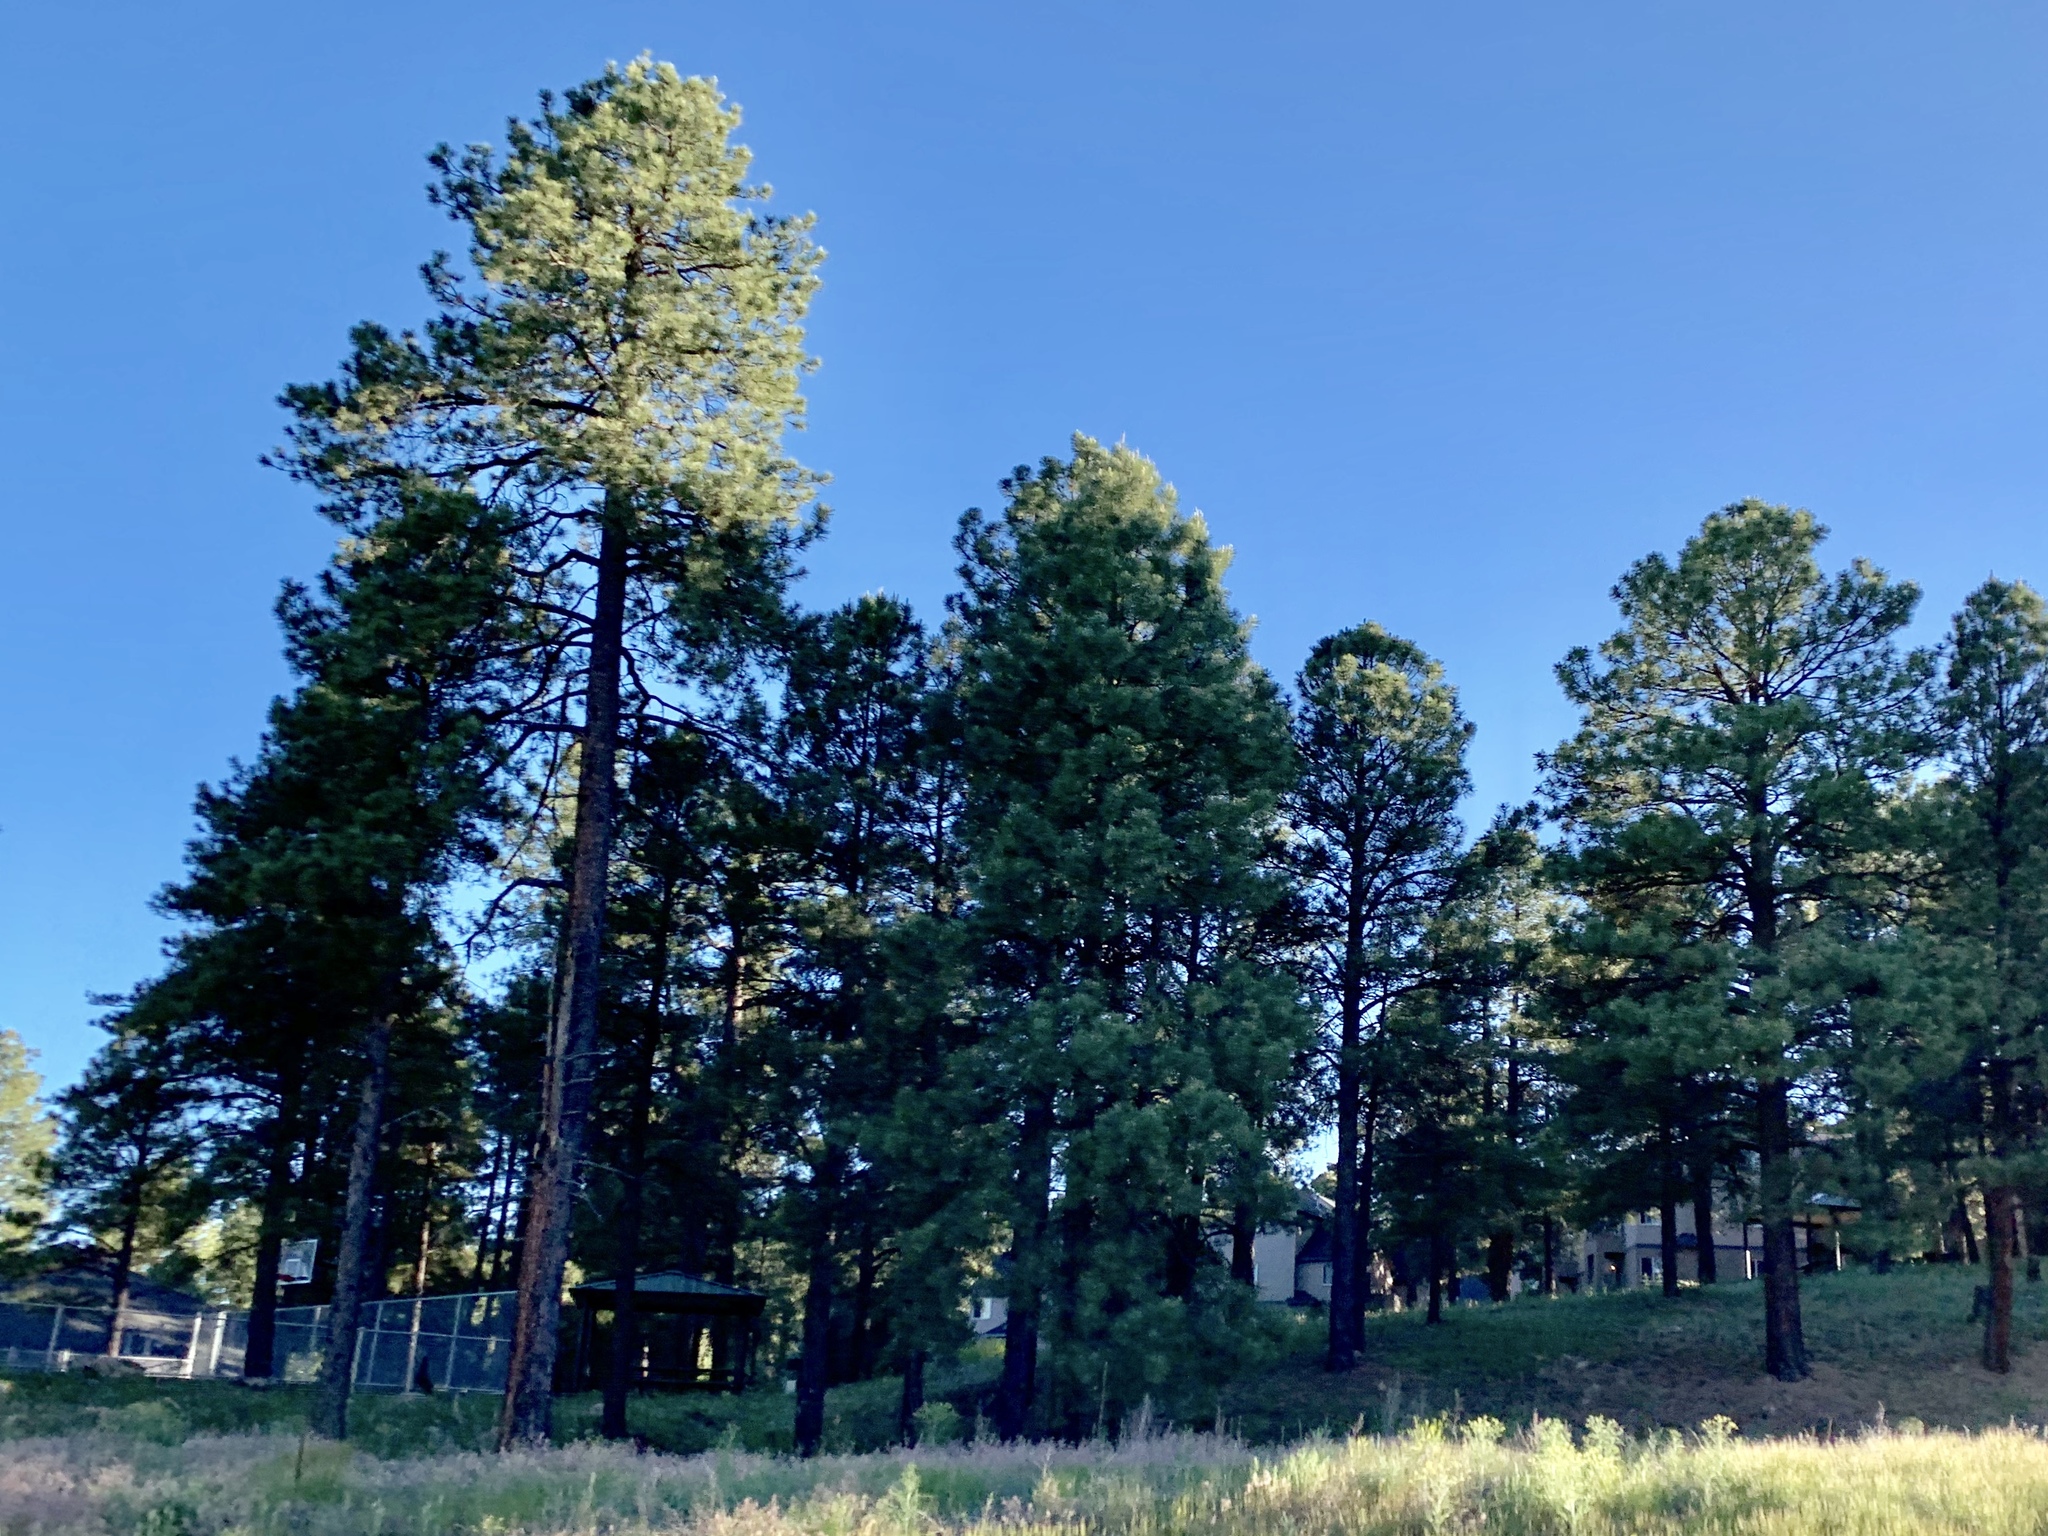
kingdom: Plantae
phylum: Tracheophyta
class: Pinopsida
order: Pinales
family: Pinaceae
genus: Pinus
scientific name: Pinus ponderosa
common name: Western yellow-pine
